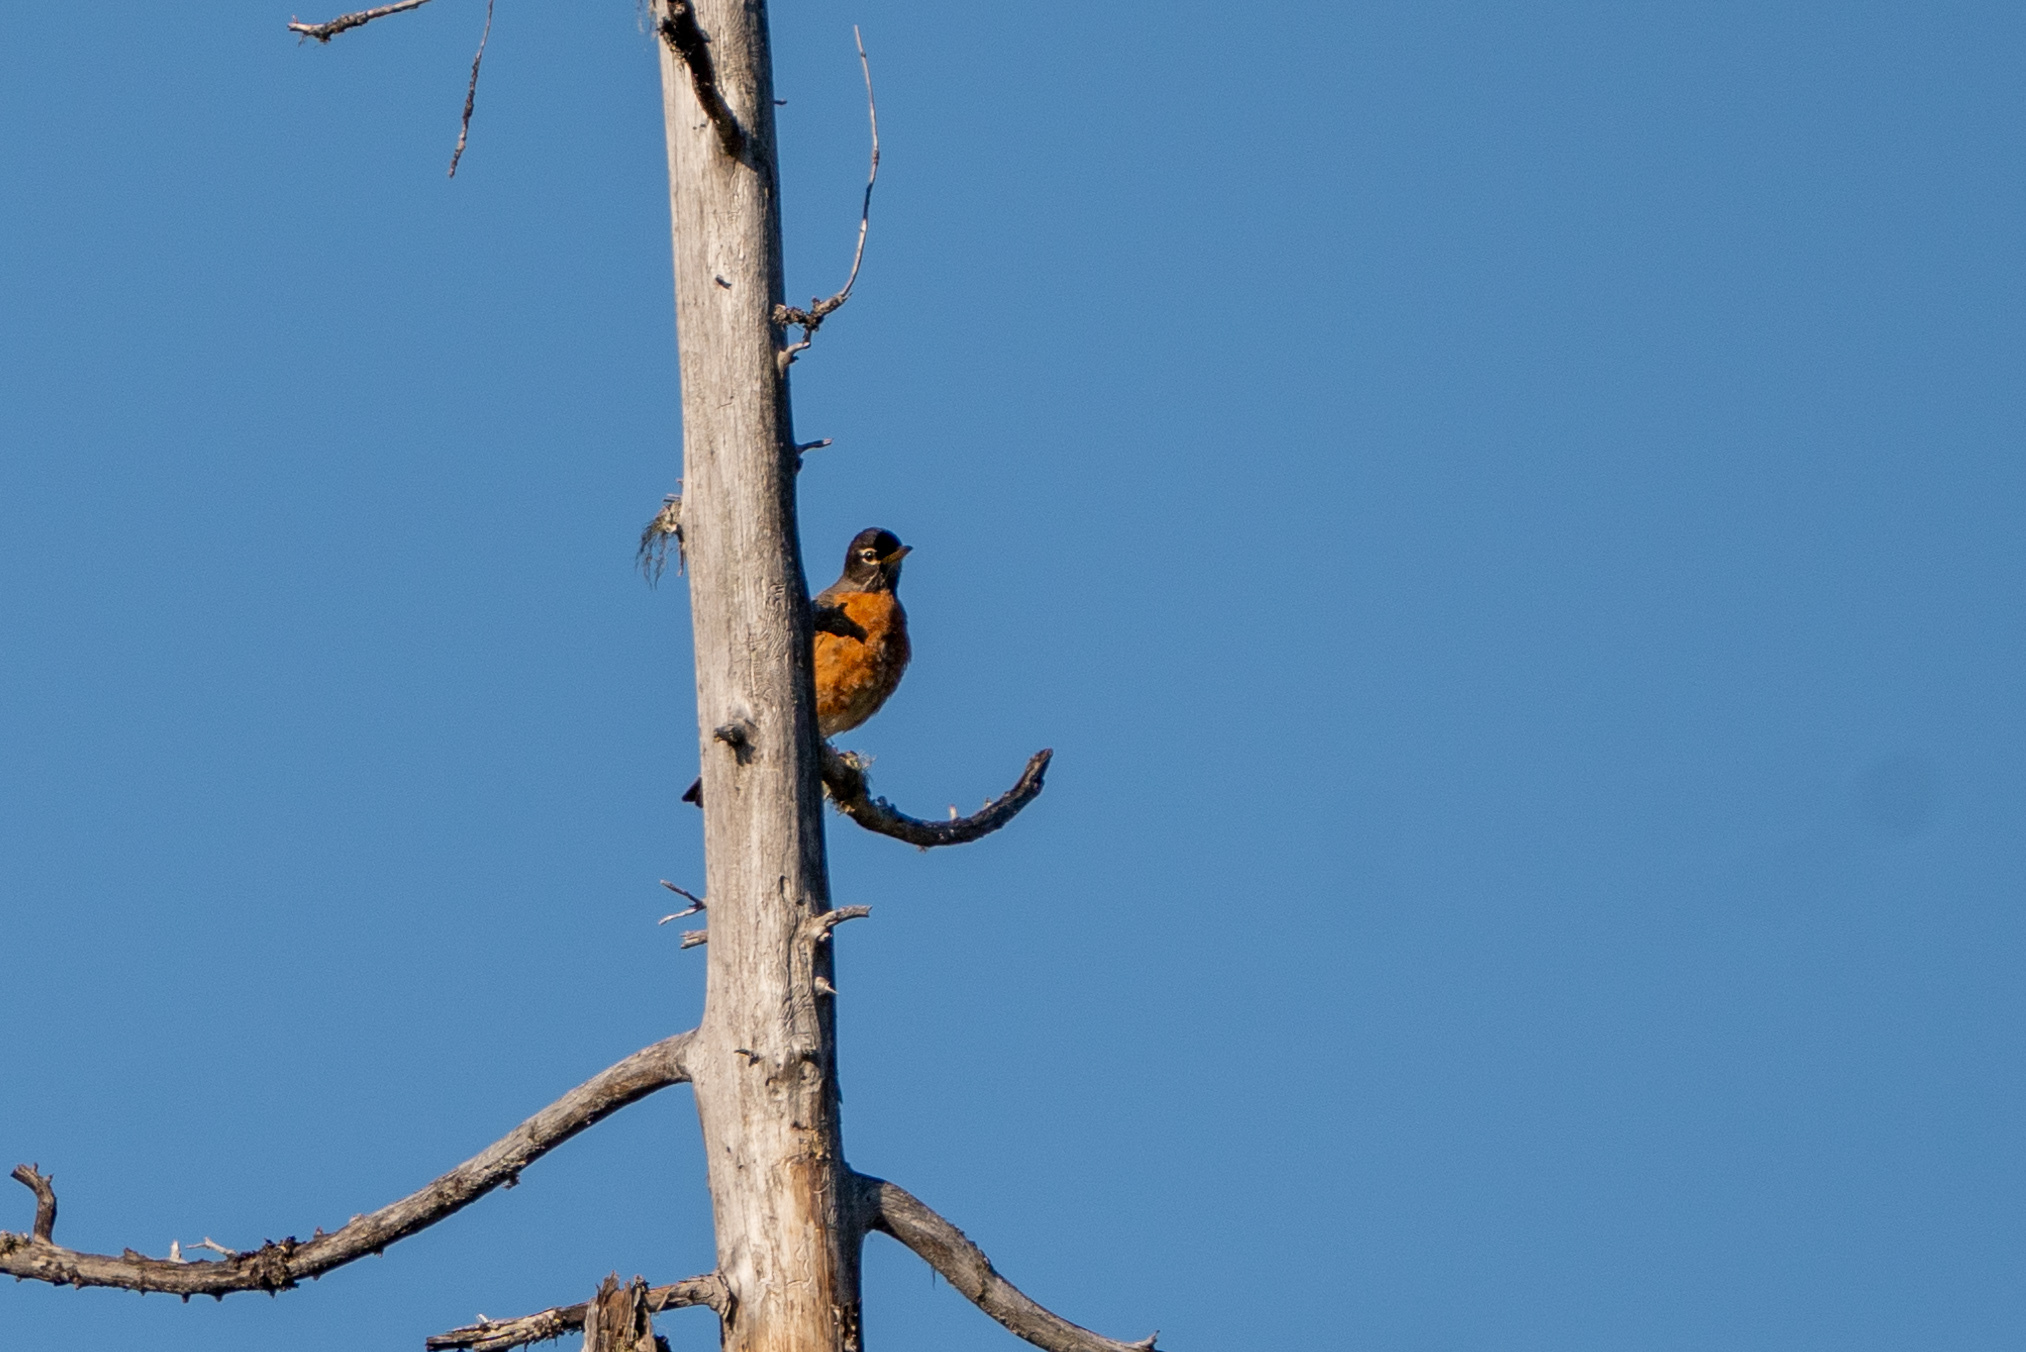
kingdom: Animalia
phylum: Chordata
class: Aves
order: Passeriformes
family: Turdidae
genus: Turdus
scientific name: Turdus migratorius
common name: American robin
